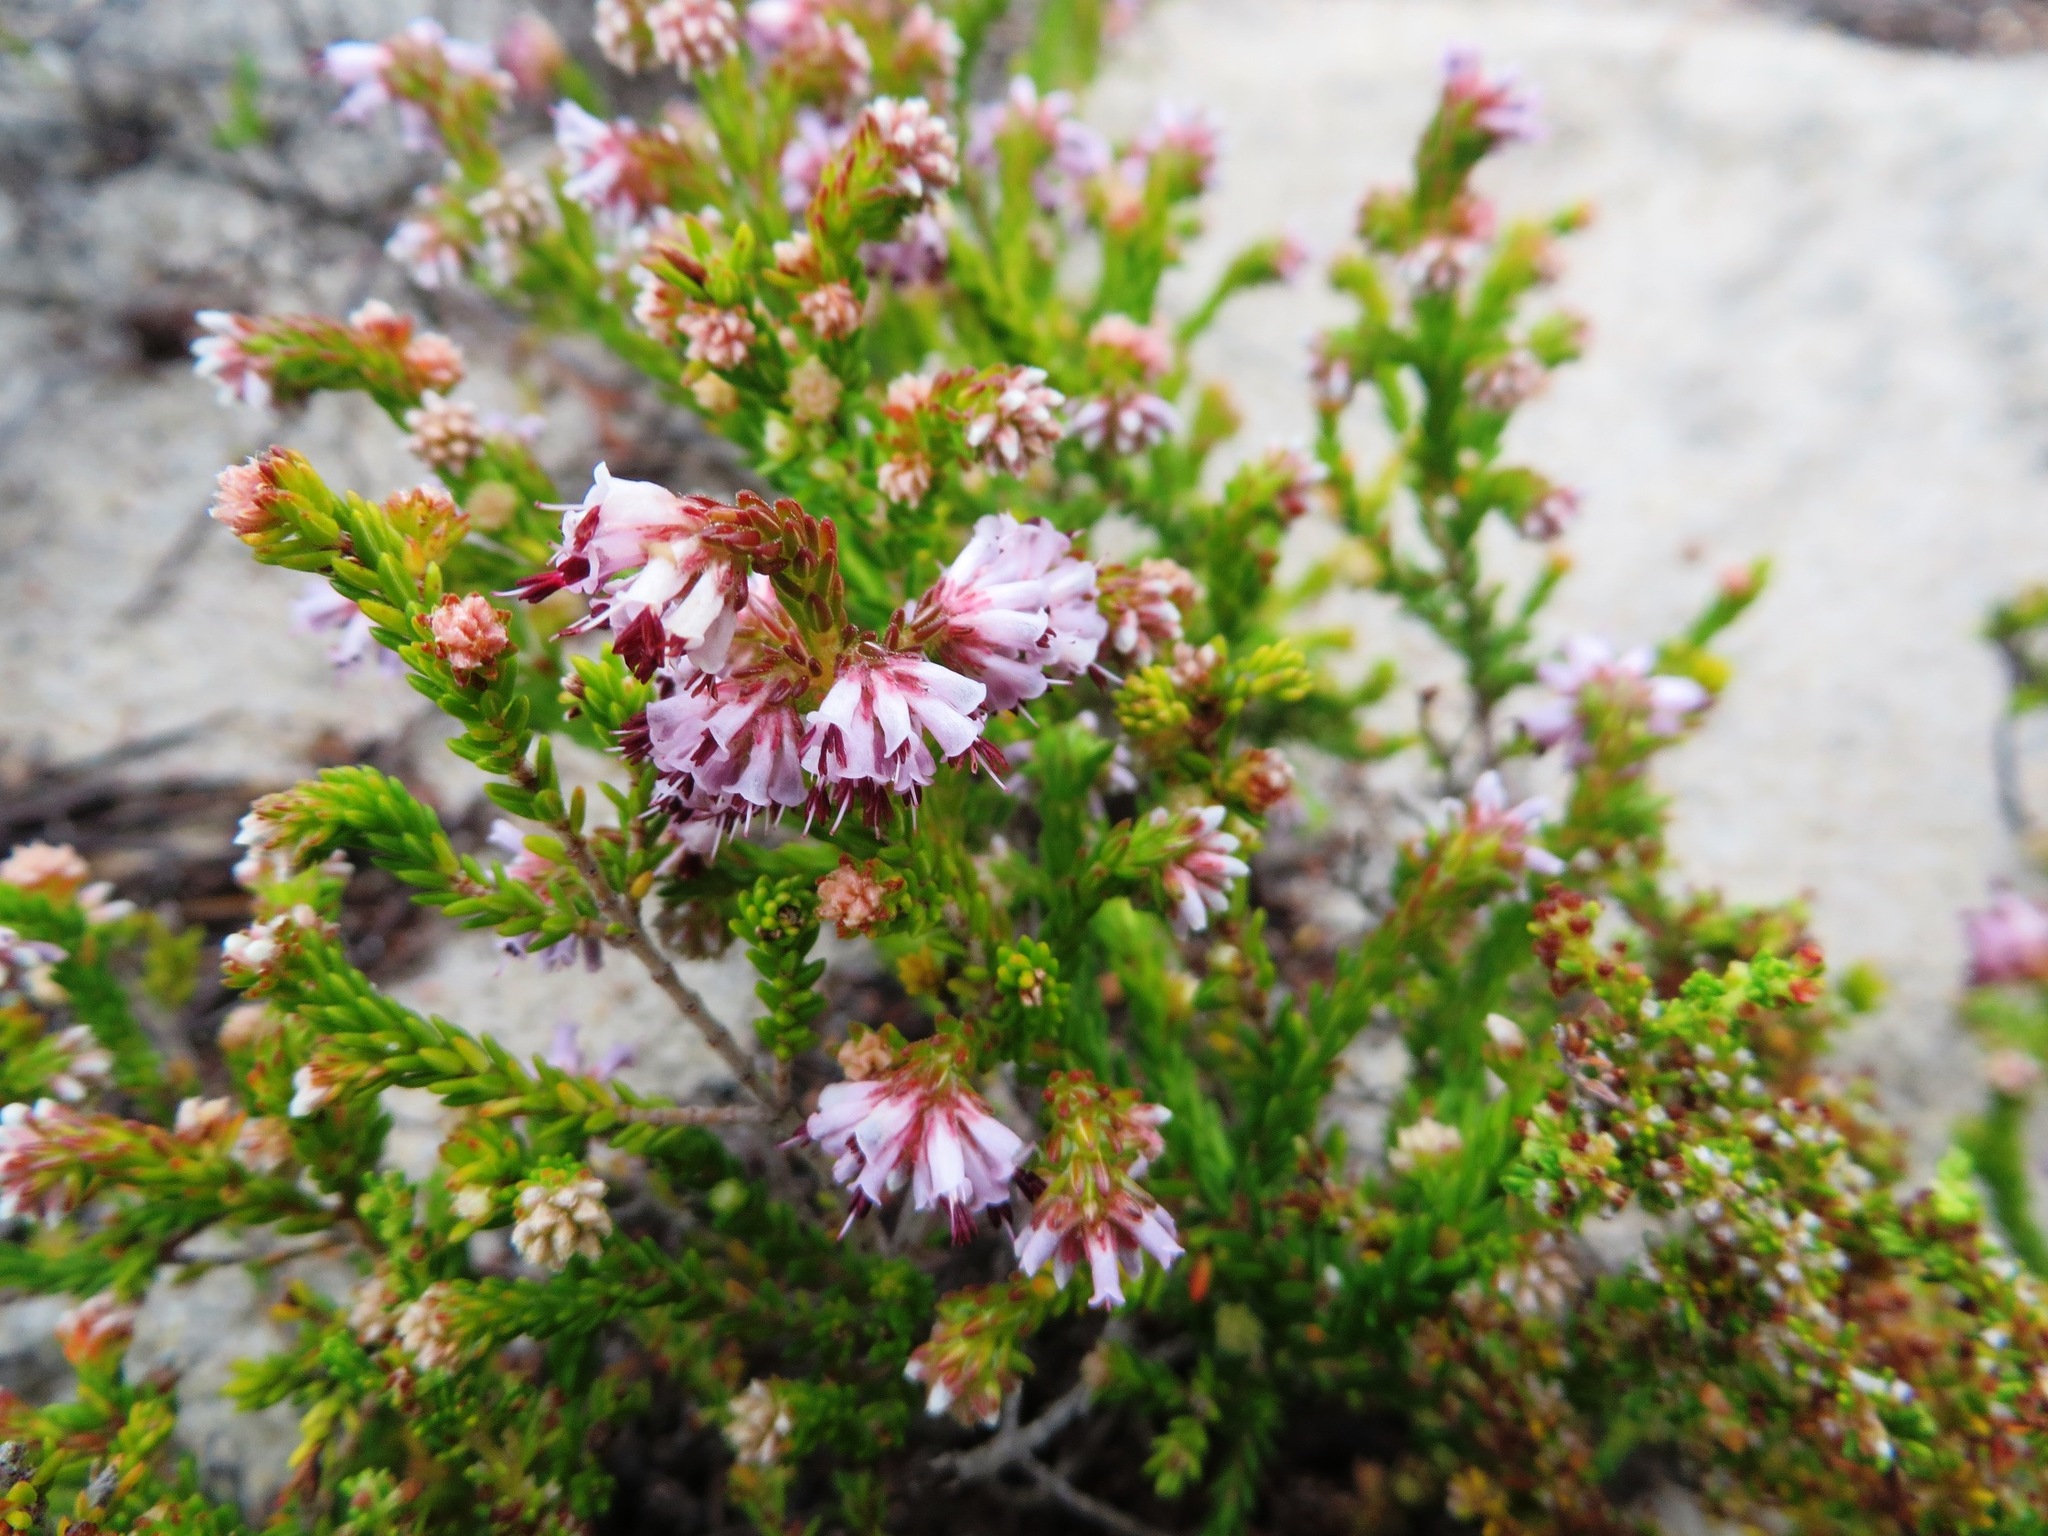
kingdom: Plantae
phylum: Tracheophyta
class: Magnoliopsida
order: Ericales
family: Ericaceae
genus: Erica
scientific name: Erica labialis
